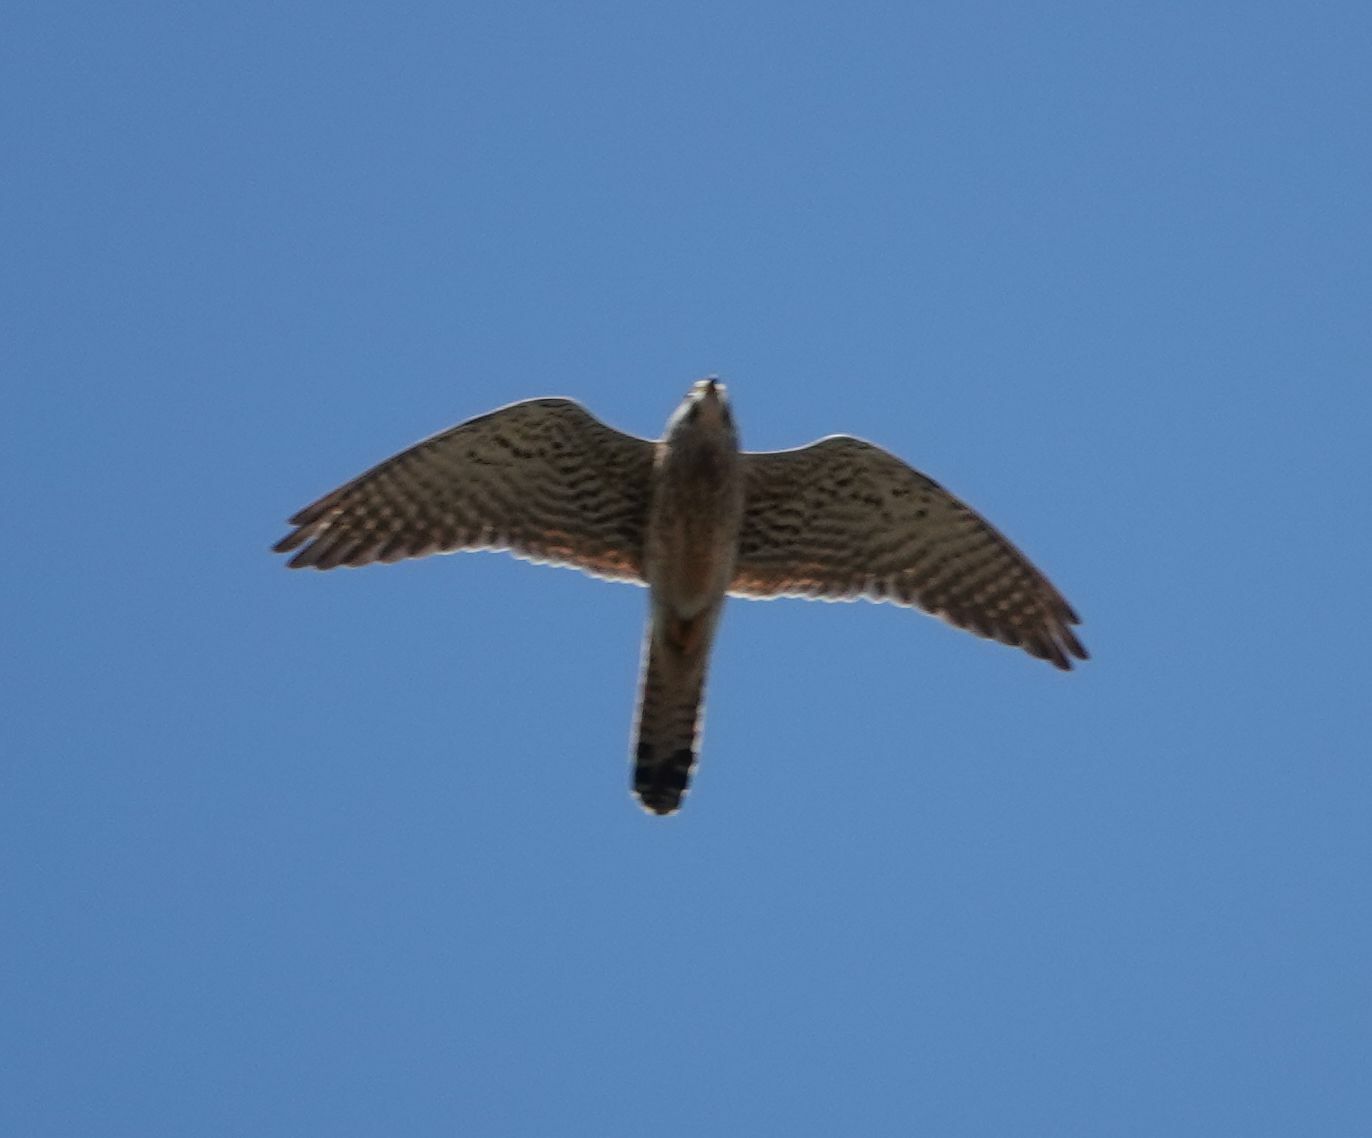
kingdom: Animalia
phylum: Chordata
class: Aves
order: Falconiformes
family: Falconidae
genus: Falco
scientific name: Falco tinnunculus
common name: Common kestrel
